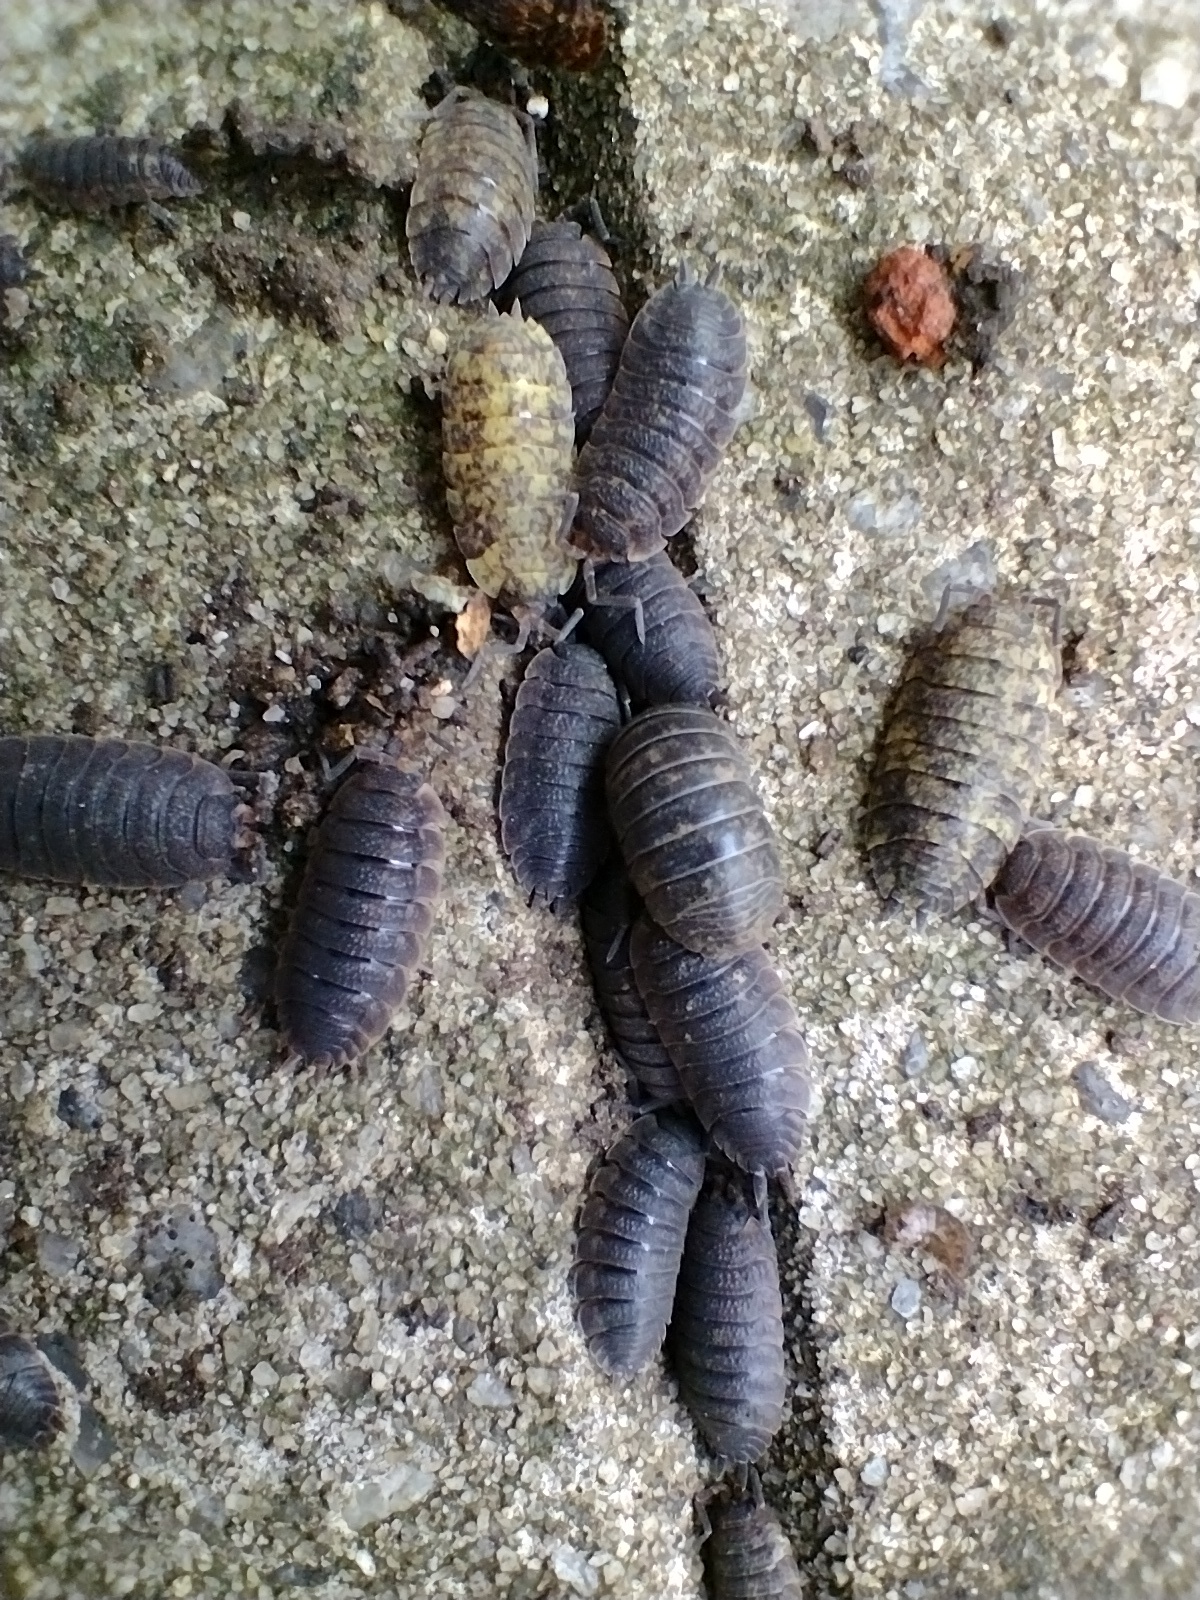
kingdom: Animalia
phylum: Arthropoda
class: Malacostraca
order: Isopoda
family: Porcellionidae
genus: Porcellio
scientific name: Porcellio scaber
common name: Common rough woodlouse
